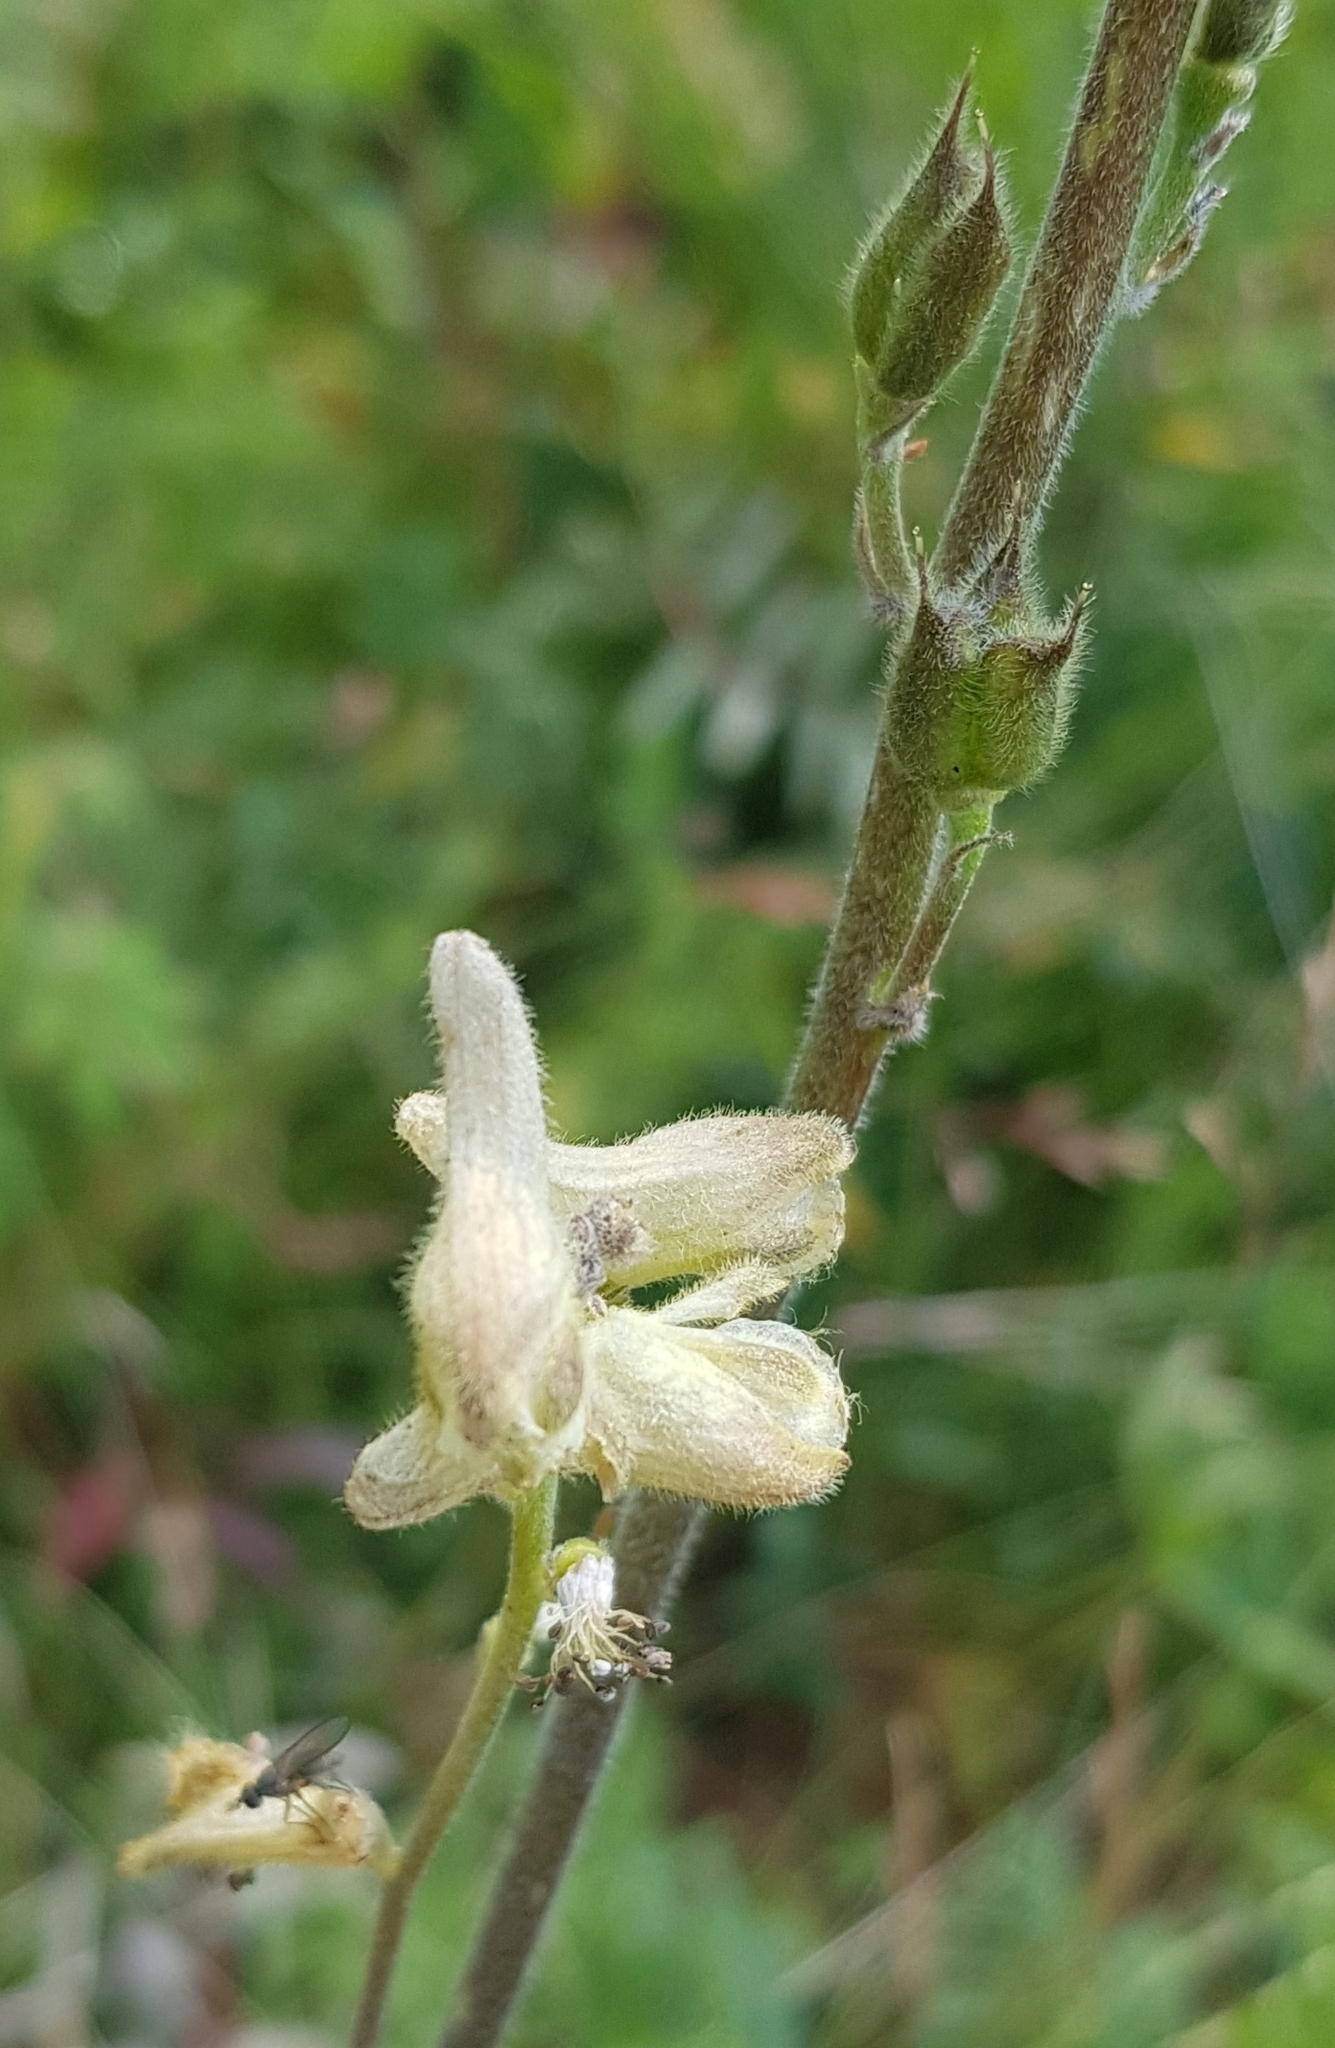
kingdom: Plantae
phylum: Tracheophyta
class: Magnoliopsida
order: Ranunculales
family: Ranunculaceae
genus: Aconitum
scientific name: Aconitum barbatum
